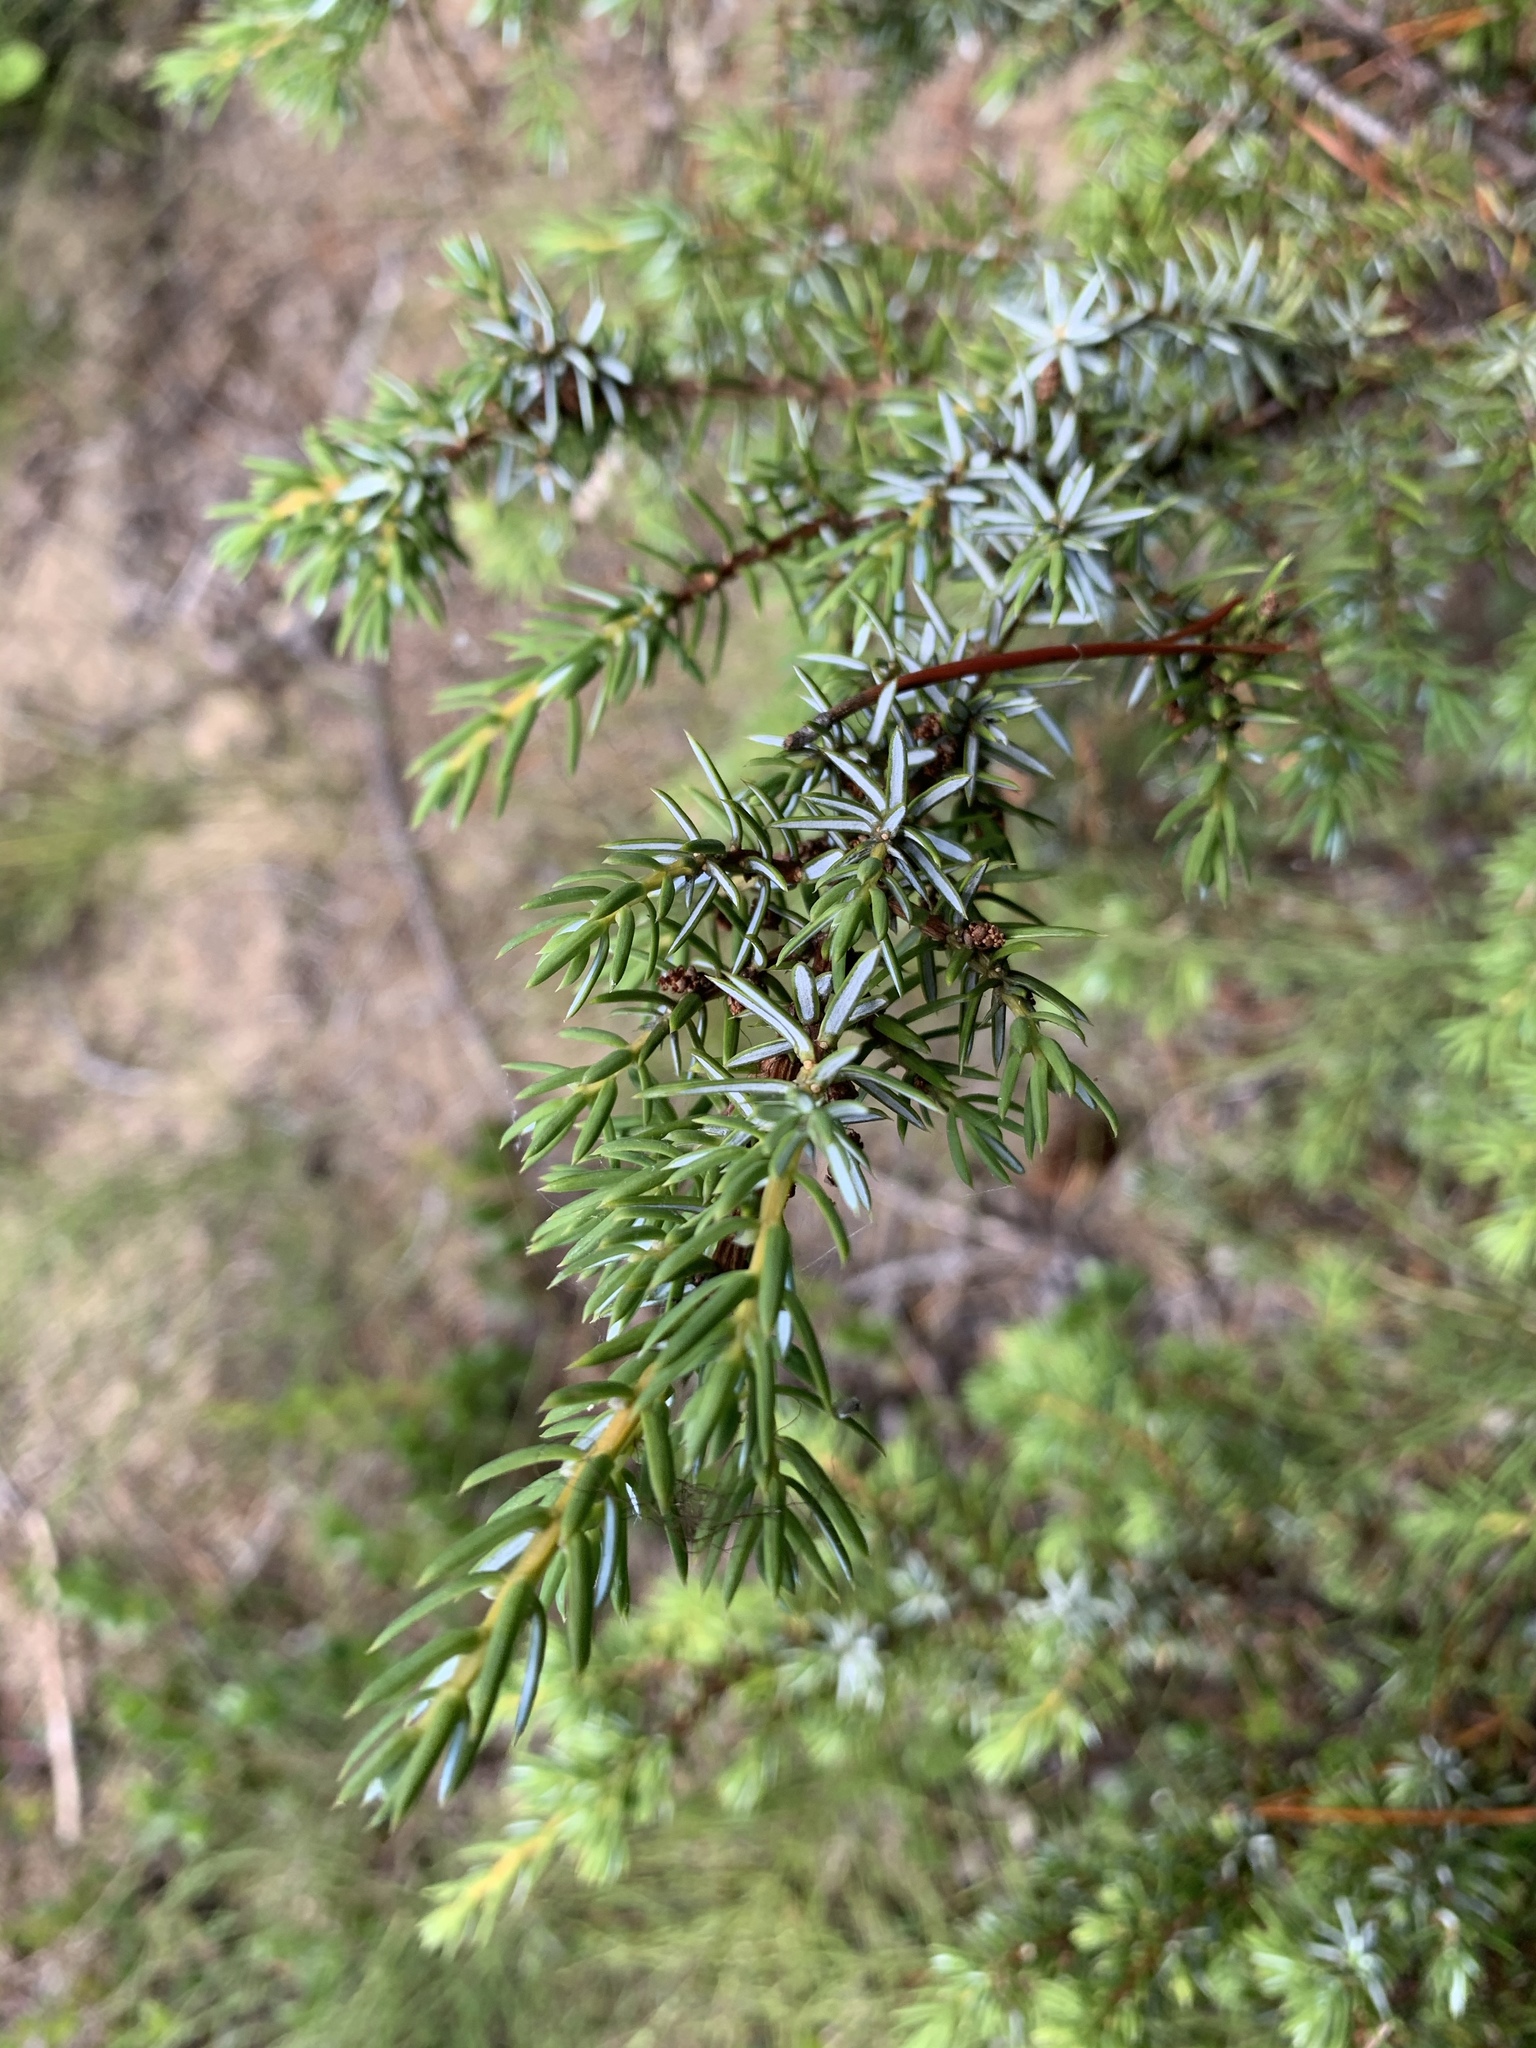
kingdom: Plantae
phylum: Tracheophyta
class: Pinopsida
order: Pinales
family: Cupressaceae
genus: Juniperus
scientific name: Juniperus communis
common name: Common juniper
